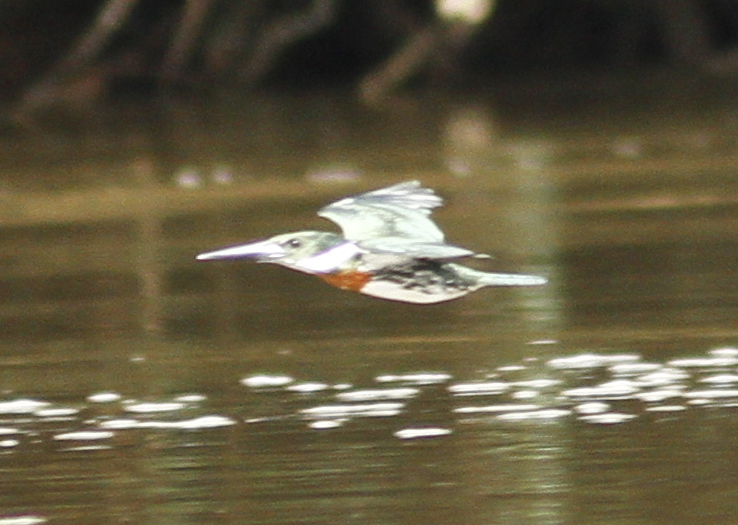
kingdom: Animalia
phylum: Chordata
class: Aves
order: Coraciiformes
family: Alcedinidae
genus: Chloroceryle
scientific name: Chloroceryle amazona
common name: Amazon kingfisher
